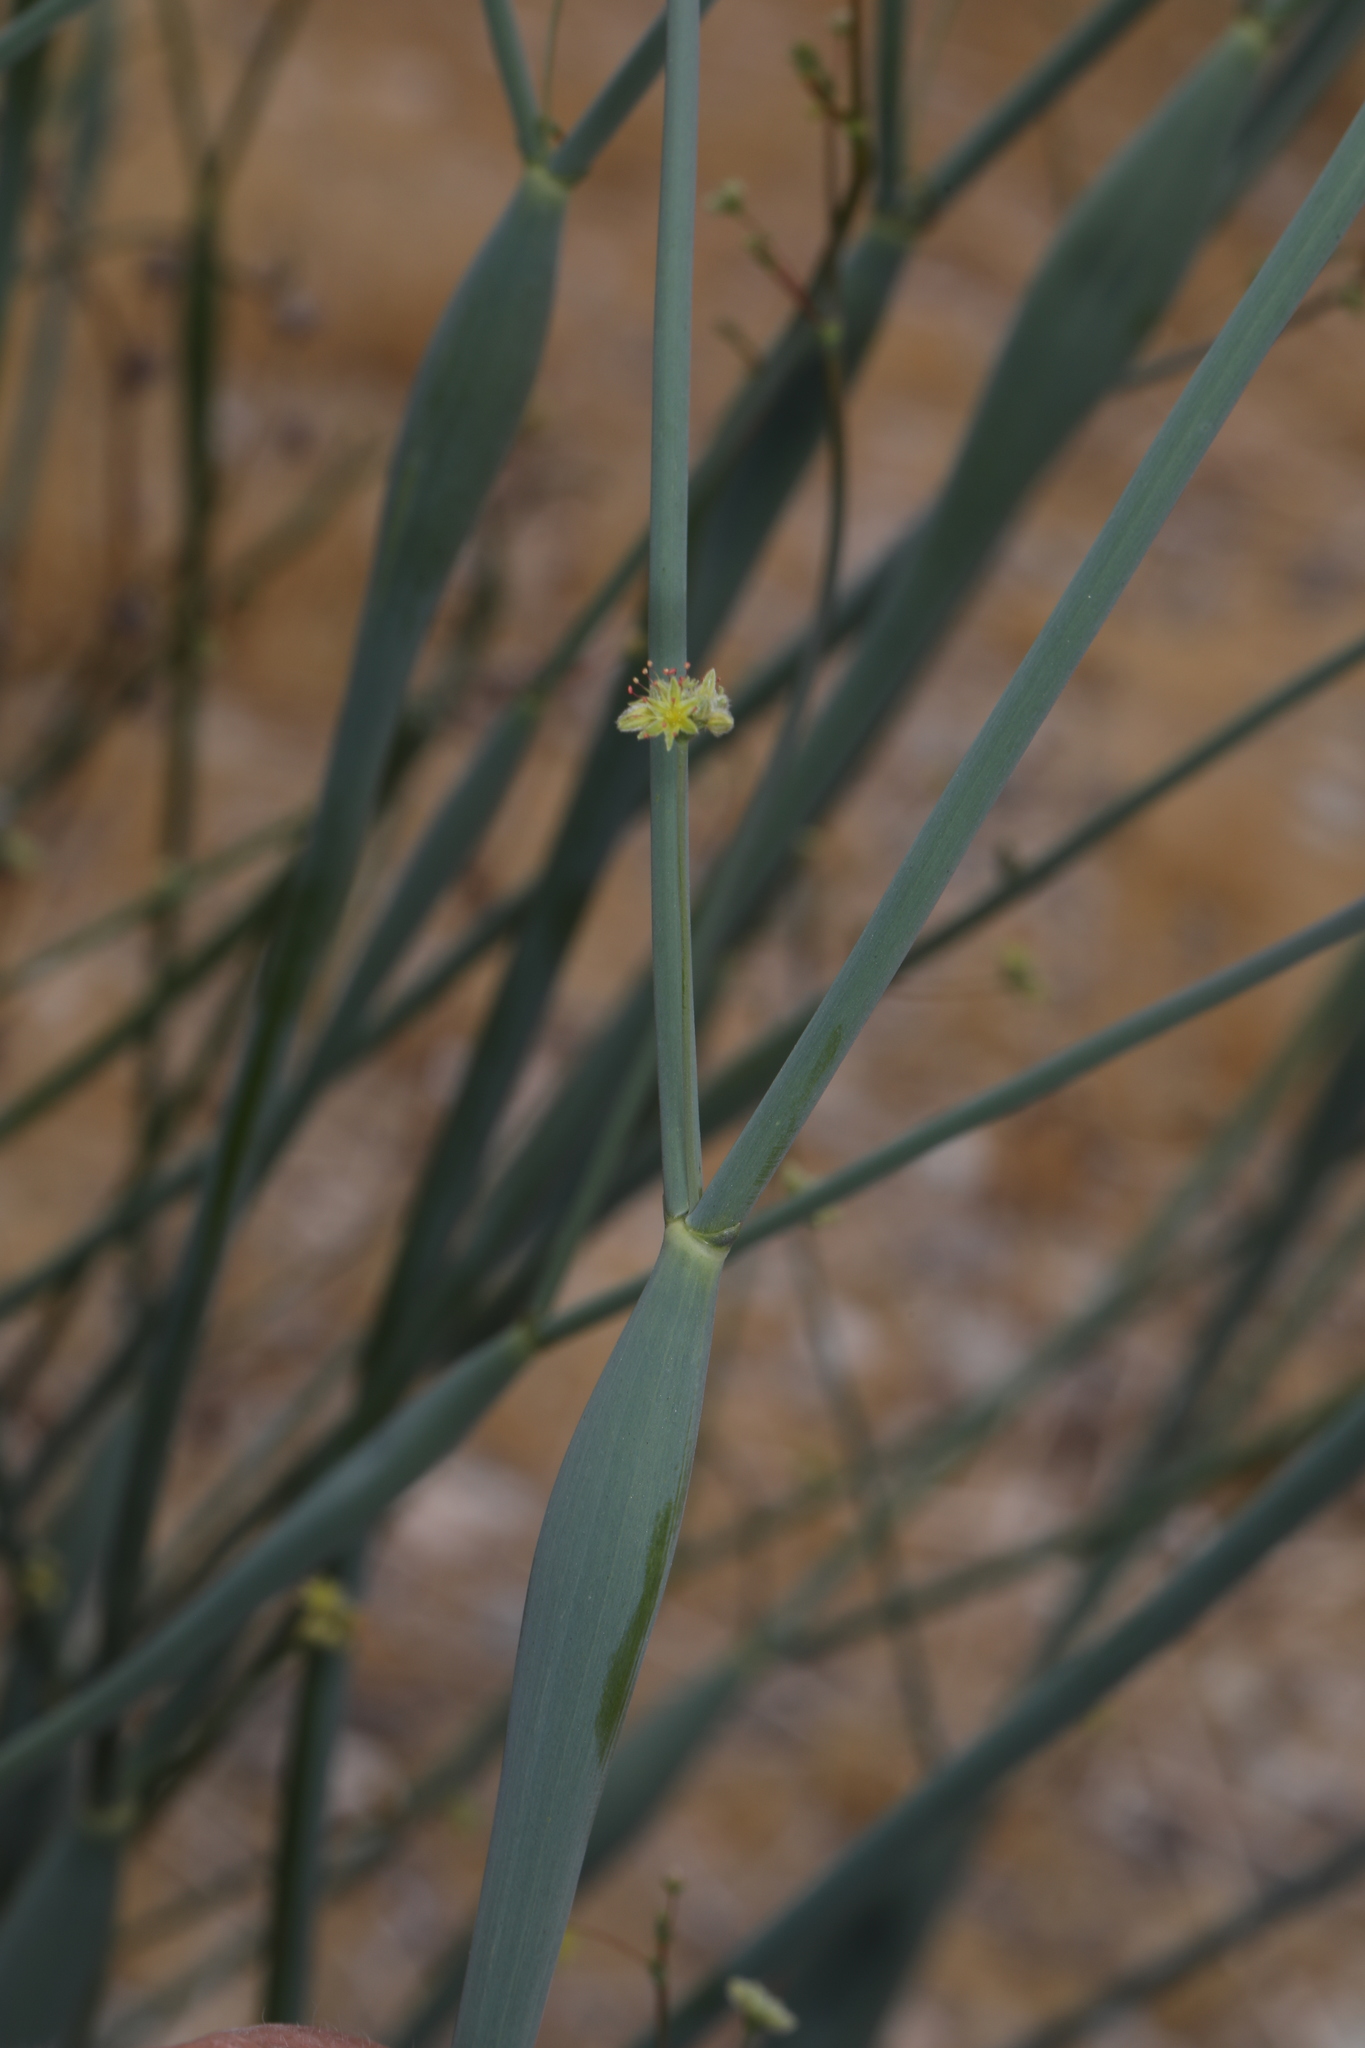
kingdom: Plantae
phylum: Tracheophyta
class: Magnoliopsida
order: Caryophyllales
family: Polygonaceae
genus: Eriogonum
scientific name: Eriogonum inflatum
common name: Desert trumpet
